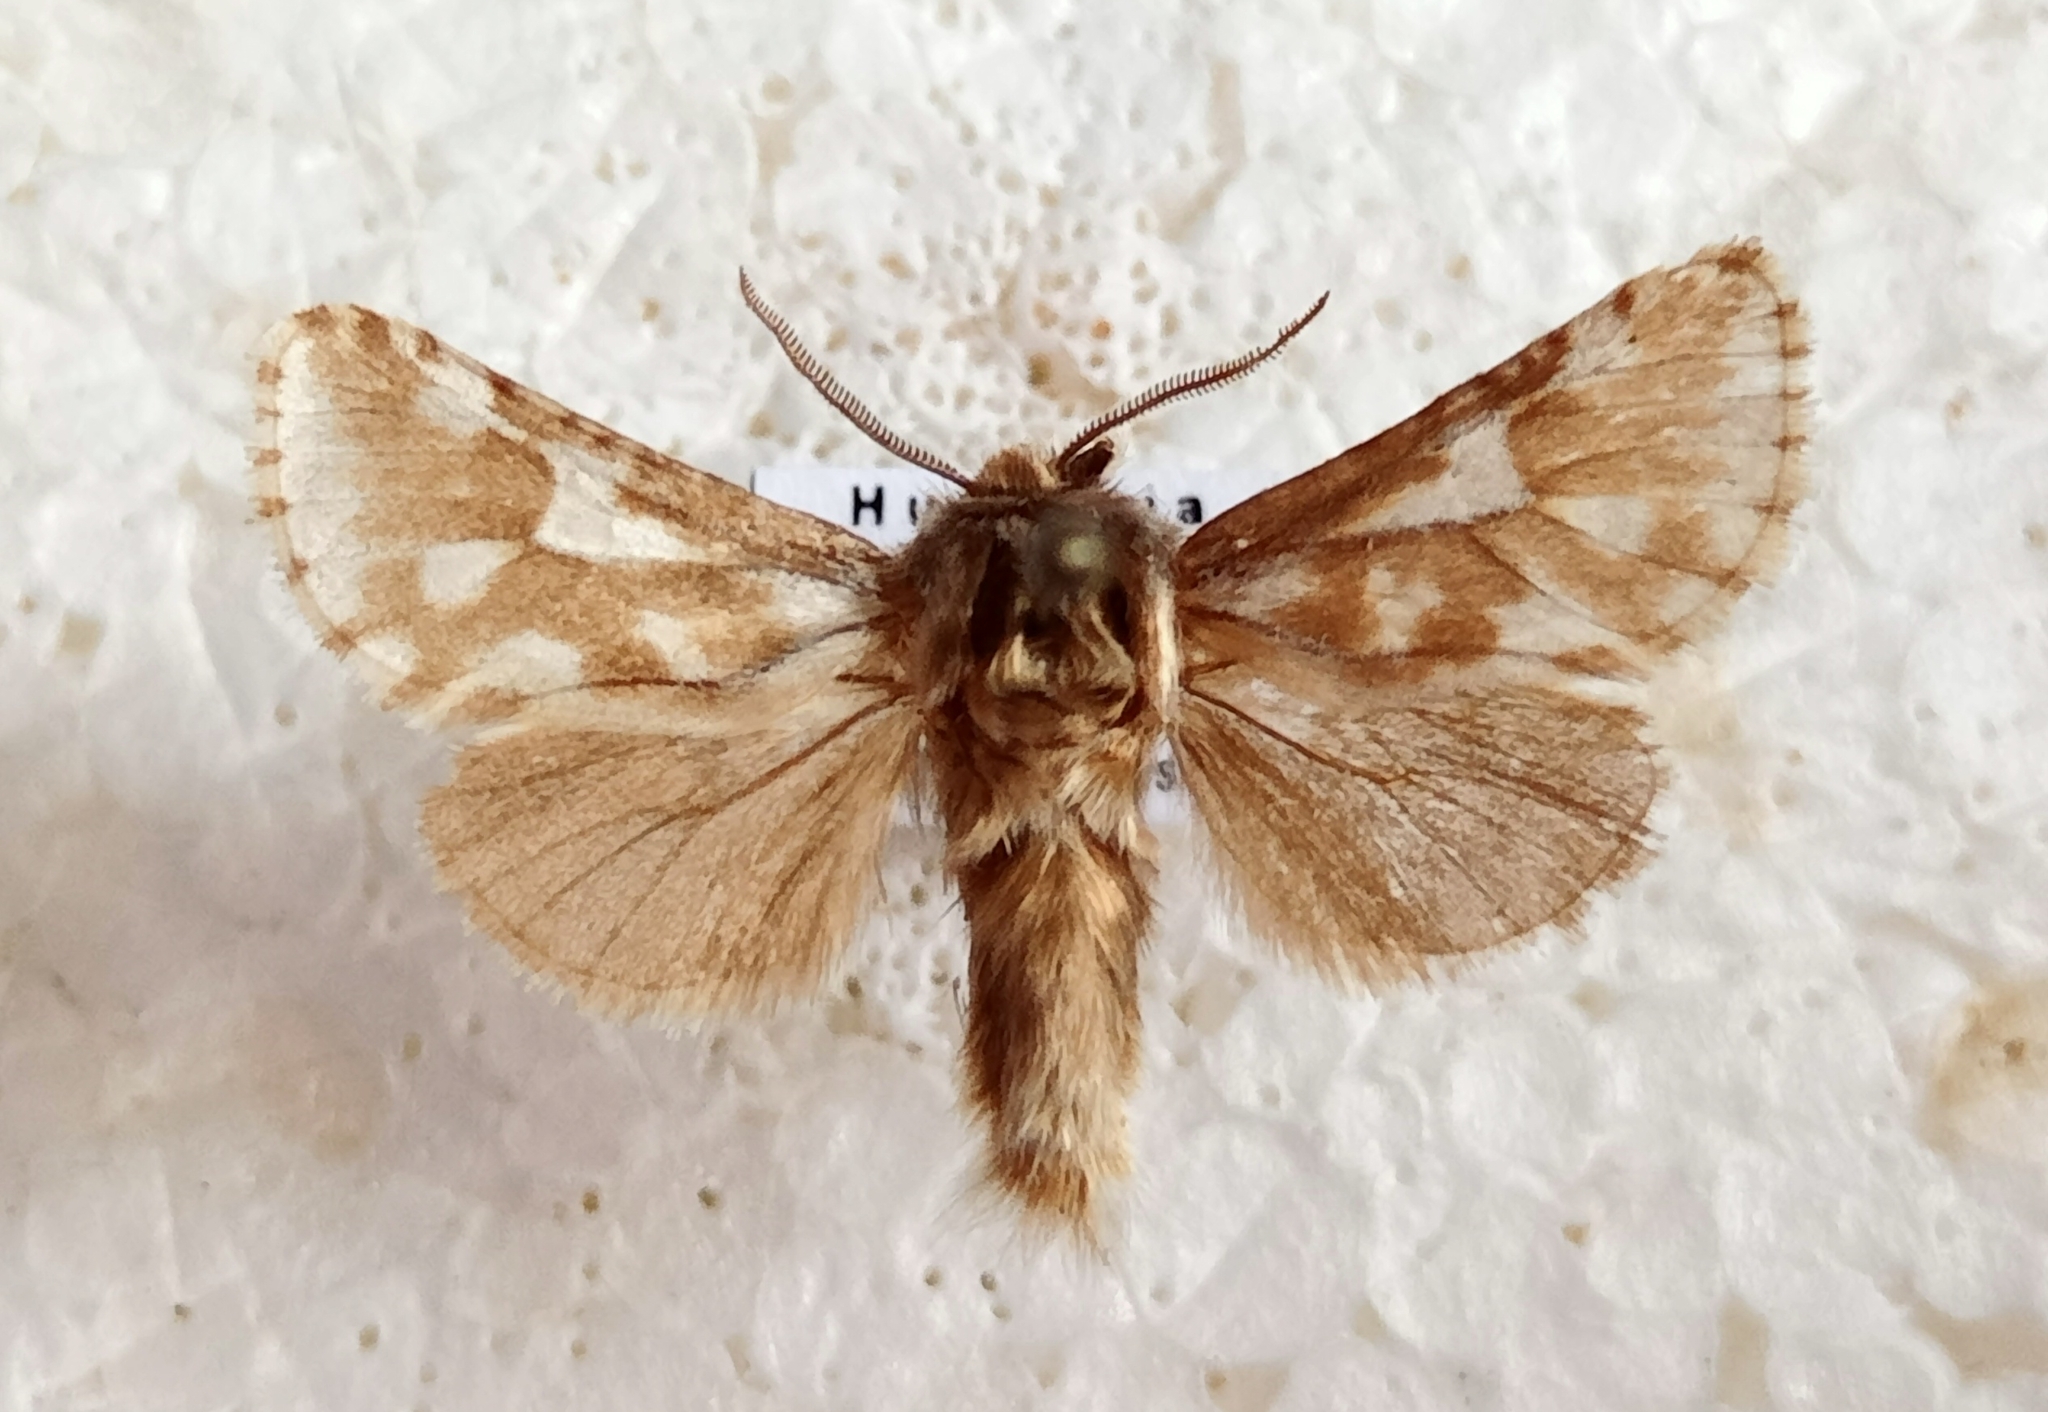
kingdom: Animalia
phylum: Arthropoda
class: Insecta
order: Lepidoptera
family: Cossidae
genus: Dyspessa
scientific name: Dyspessa ulula
